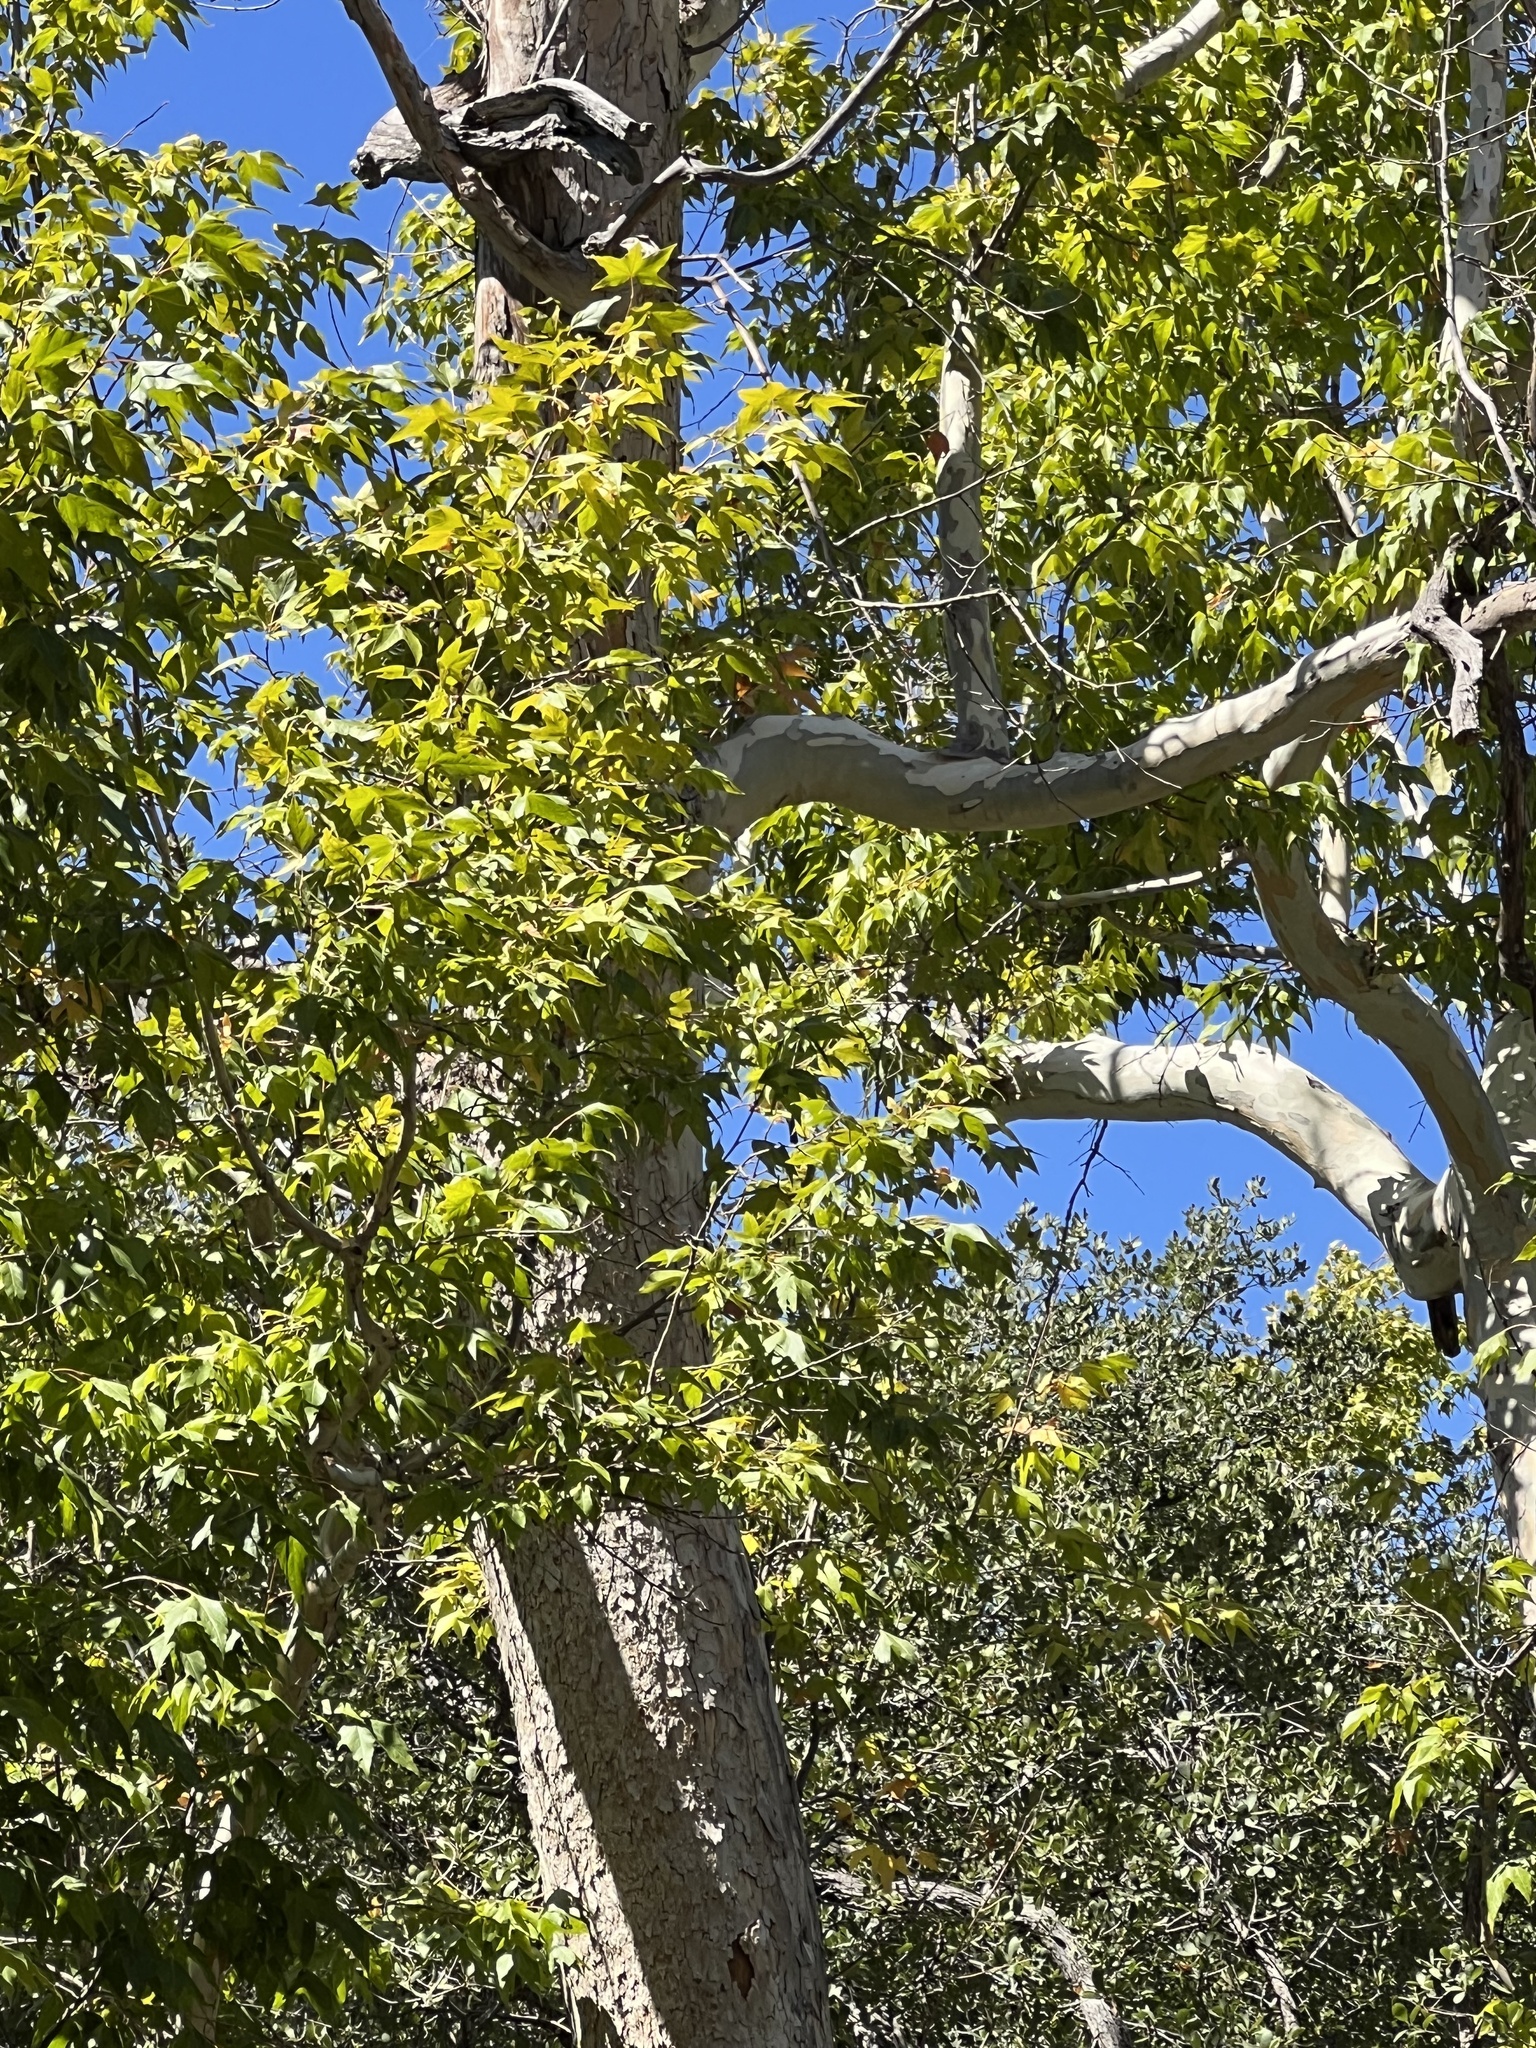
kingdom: Plantae
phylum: Tracheophyta
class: Magnoliopsida
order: Proteales
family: Platanaceae
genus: Platanus
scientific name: Platanus wrightii
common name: Arizona sycamore
